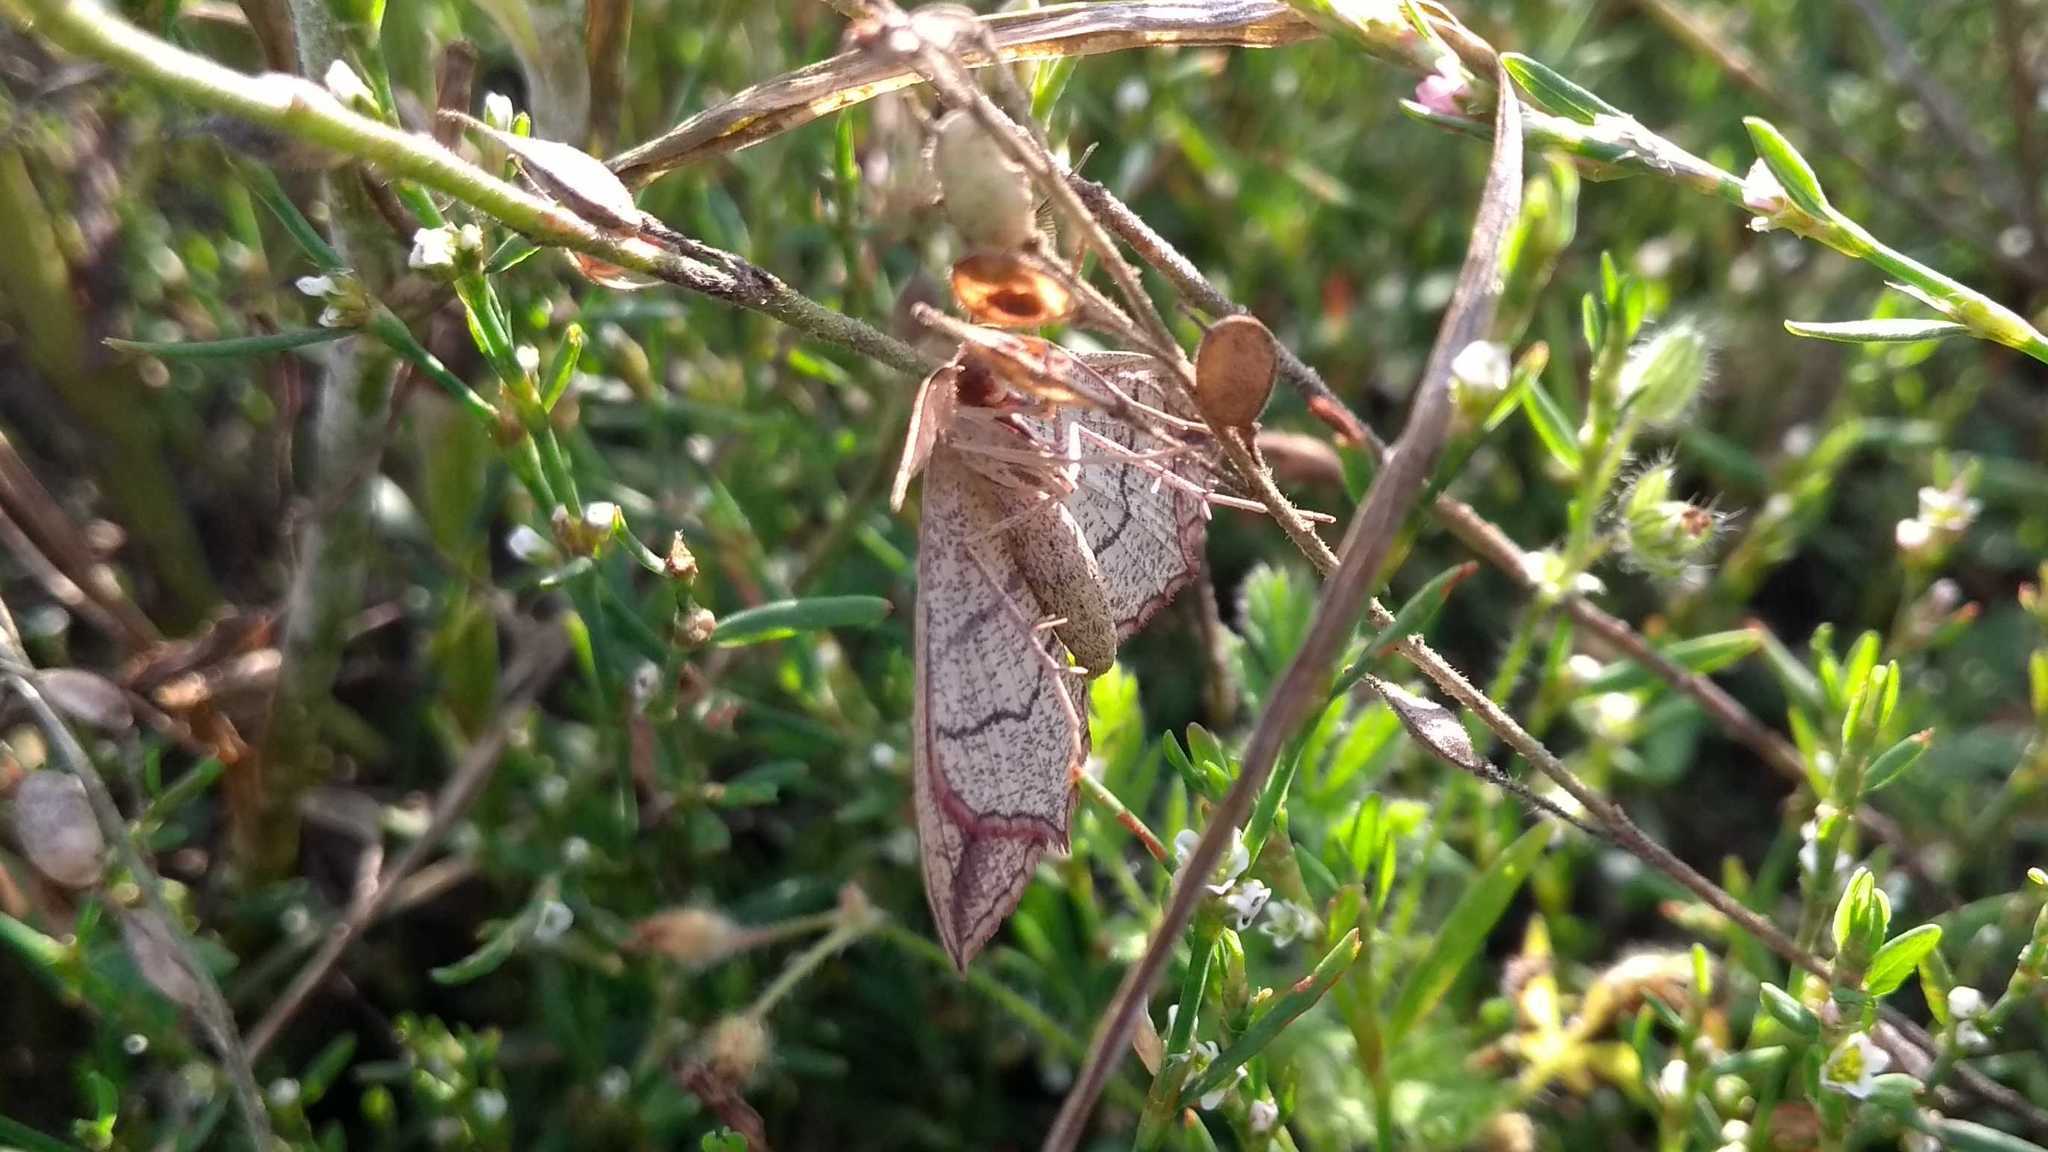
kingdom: Animalia
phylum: Arthropoda
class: Insecta
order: Lepidoptera
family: Geometridae
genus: Timandra
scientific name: Timandra comae
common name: Blood-vein
